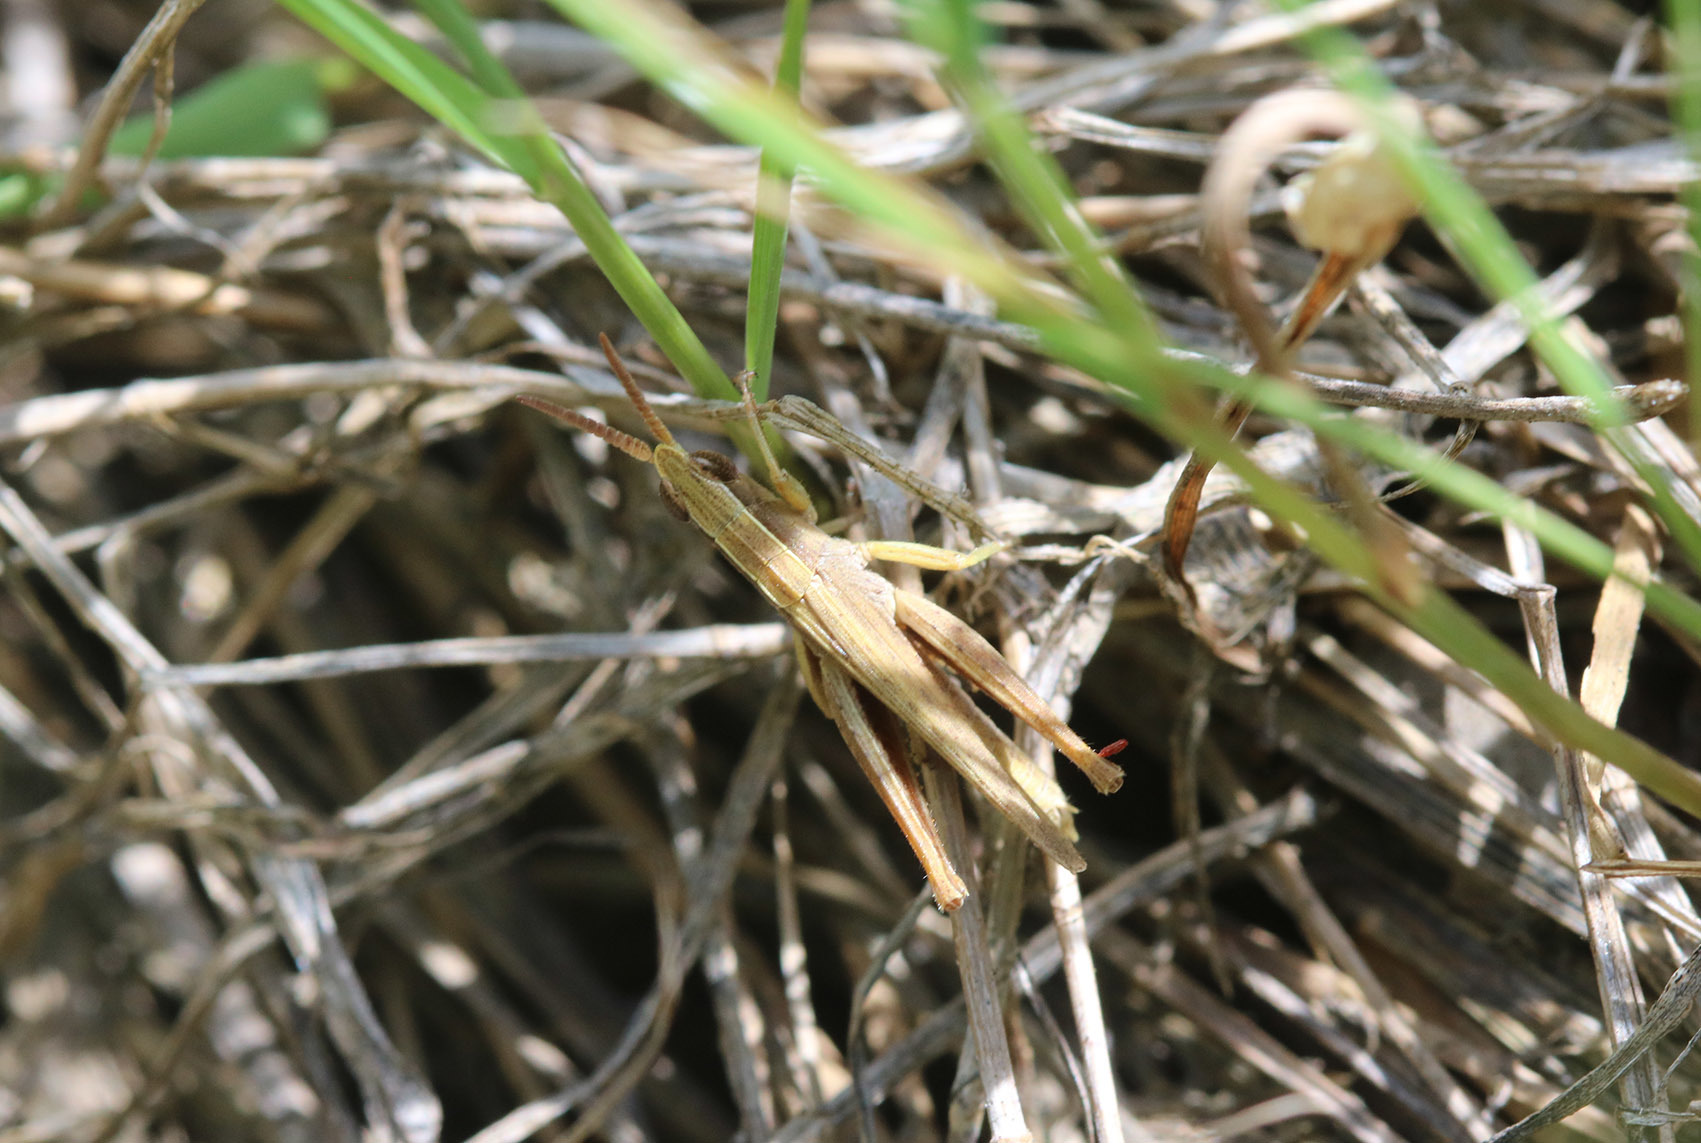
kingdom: Animalia
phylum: Arthropoda
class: Insecta
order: Orthoptera
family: Acrididae
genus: Laplatacris
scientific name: Laplatacris dispar
